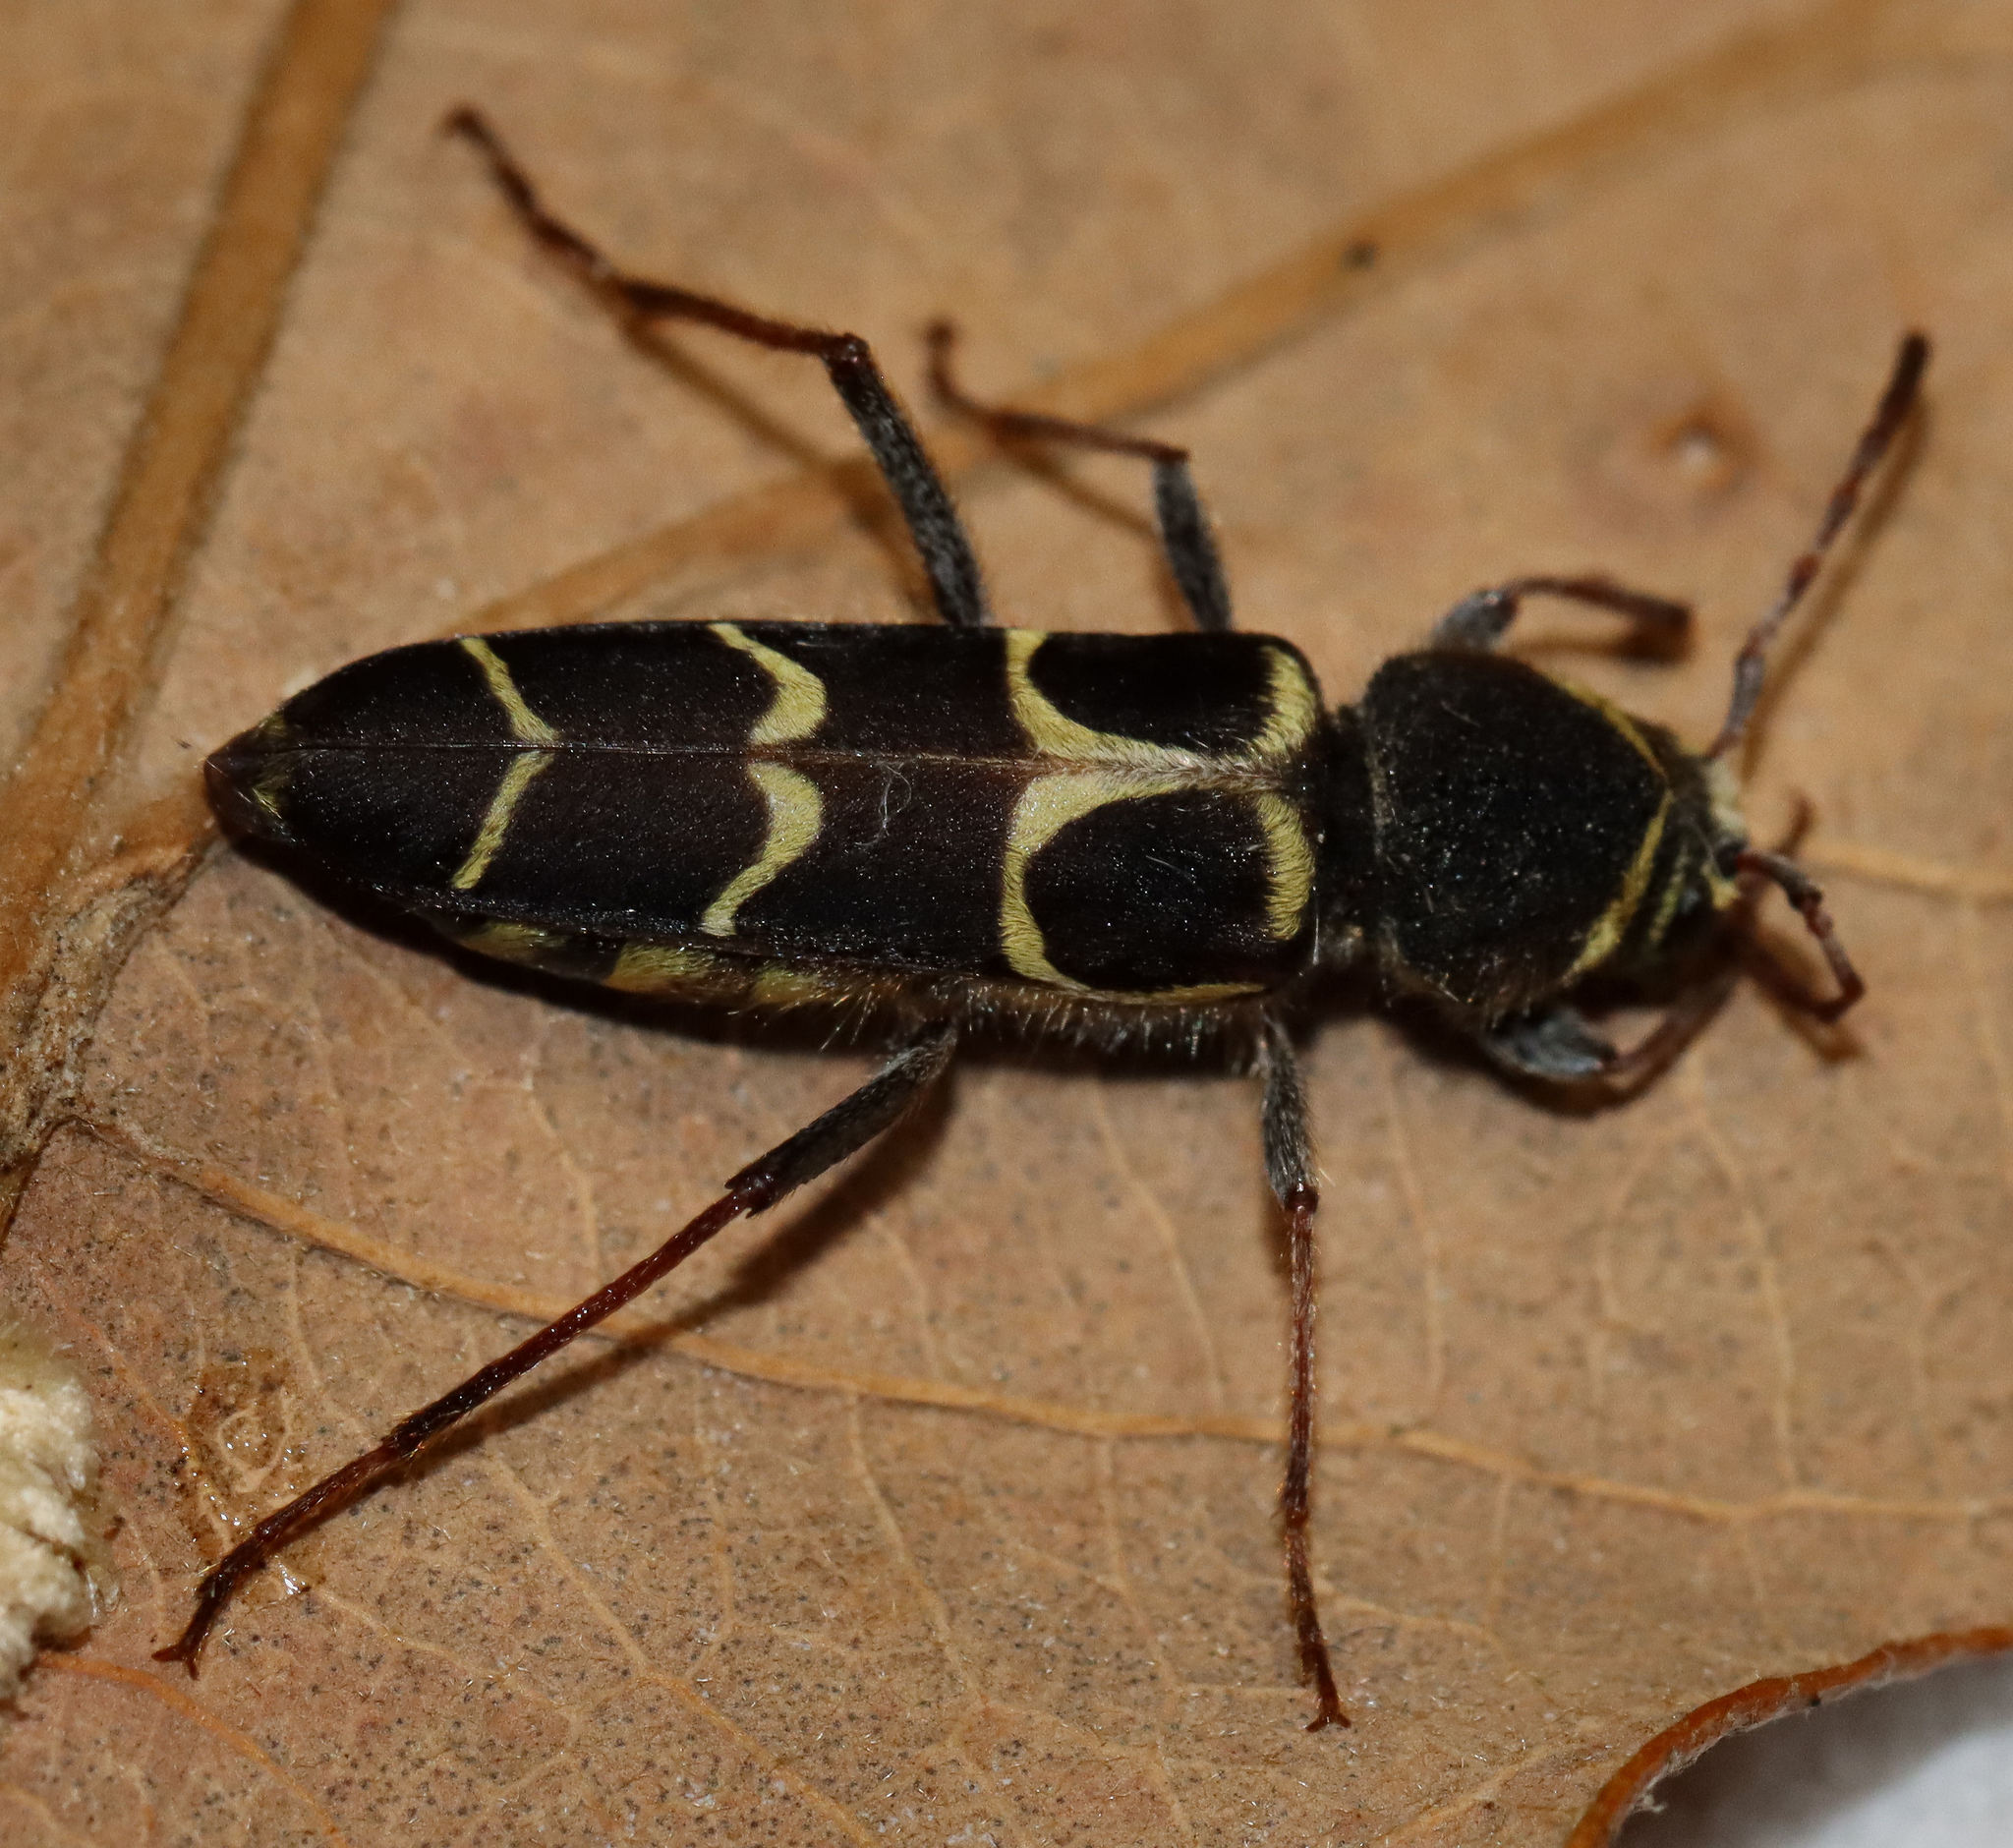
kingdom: Animalia
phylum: Arthropoda
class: Insecta
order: Coleoptera
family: Cerambycidae
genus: Neoclytus
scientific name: Neoclytus caprea
